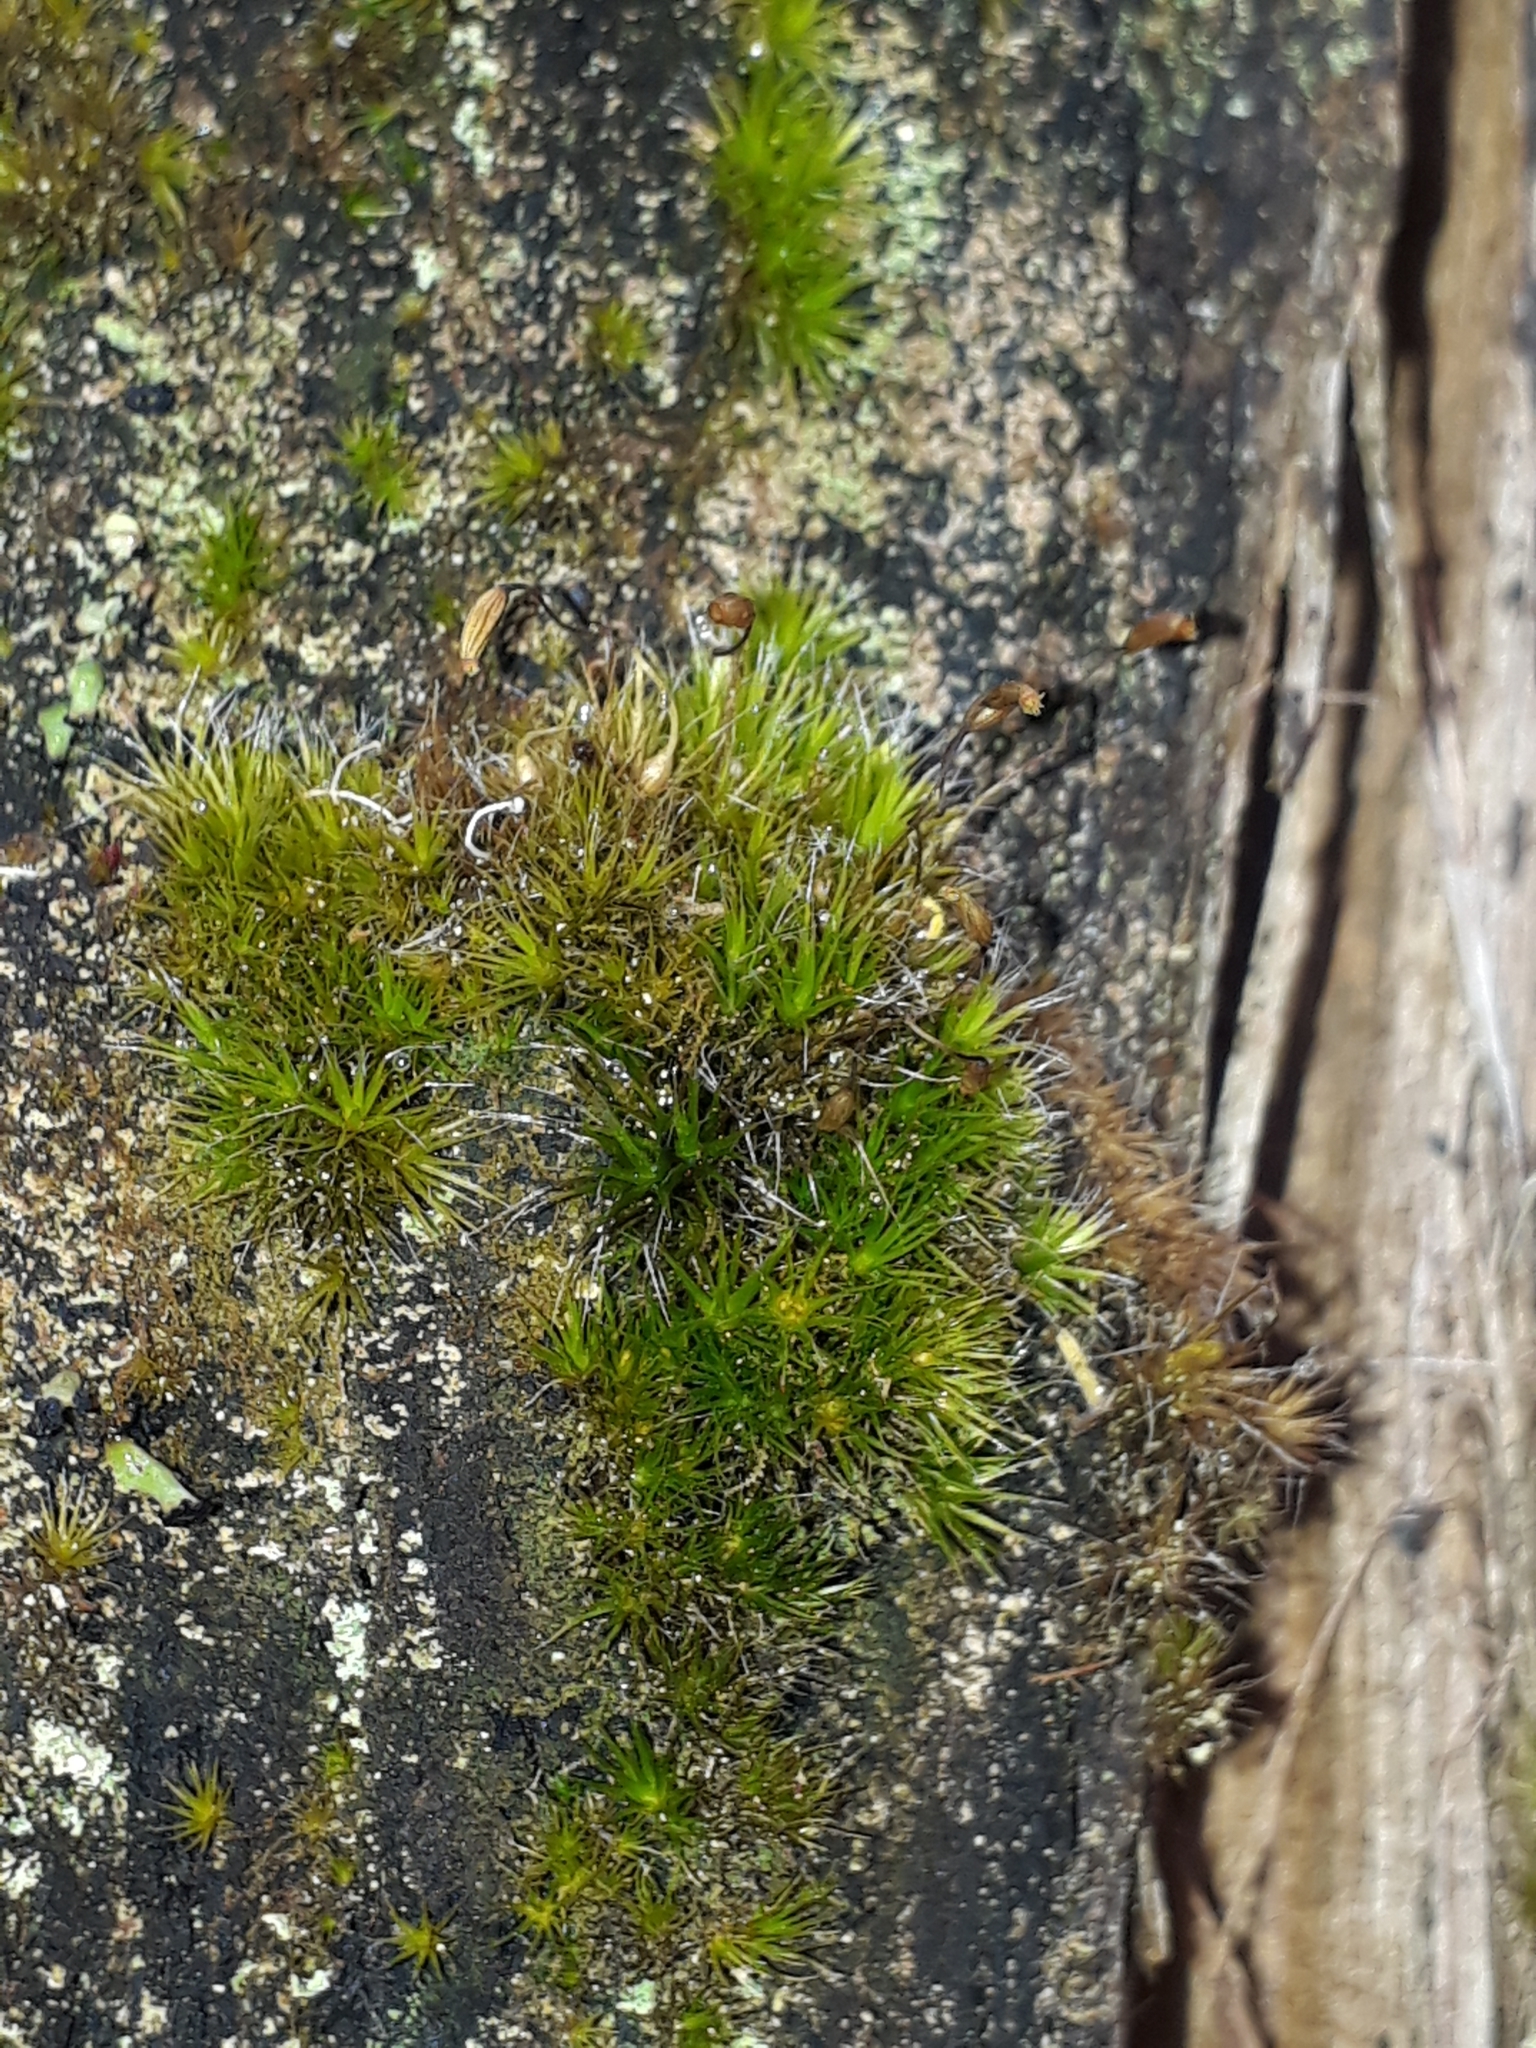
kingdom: Plantae
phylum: Bryophyta
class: Bryopsida
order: Dicranales
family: Leucobryaceae
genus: Campylopus
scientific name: Campylopus introflexus
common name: Heath star moss
